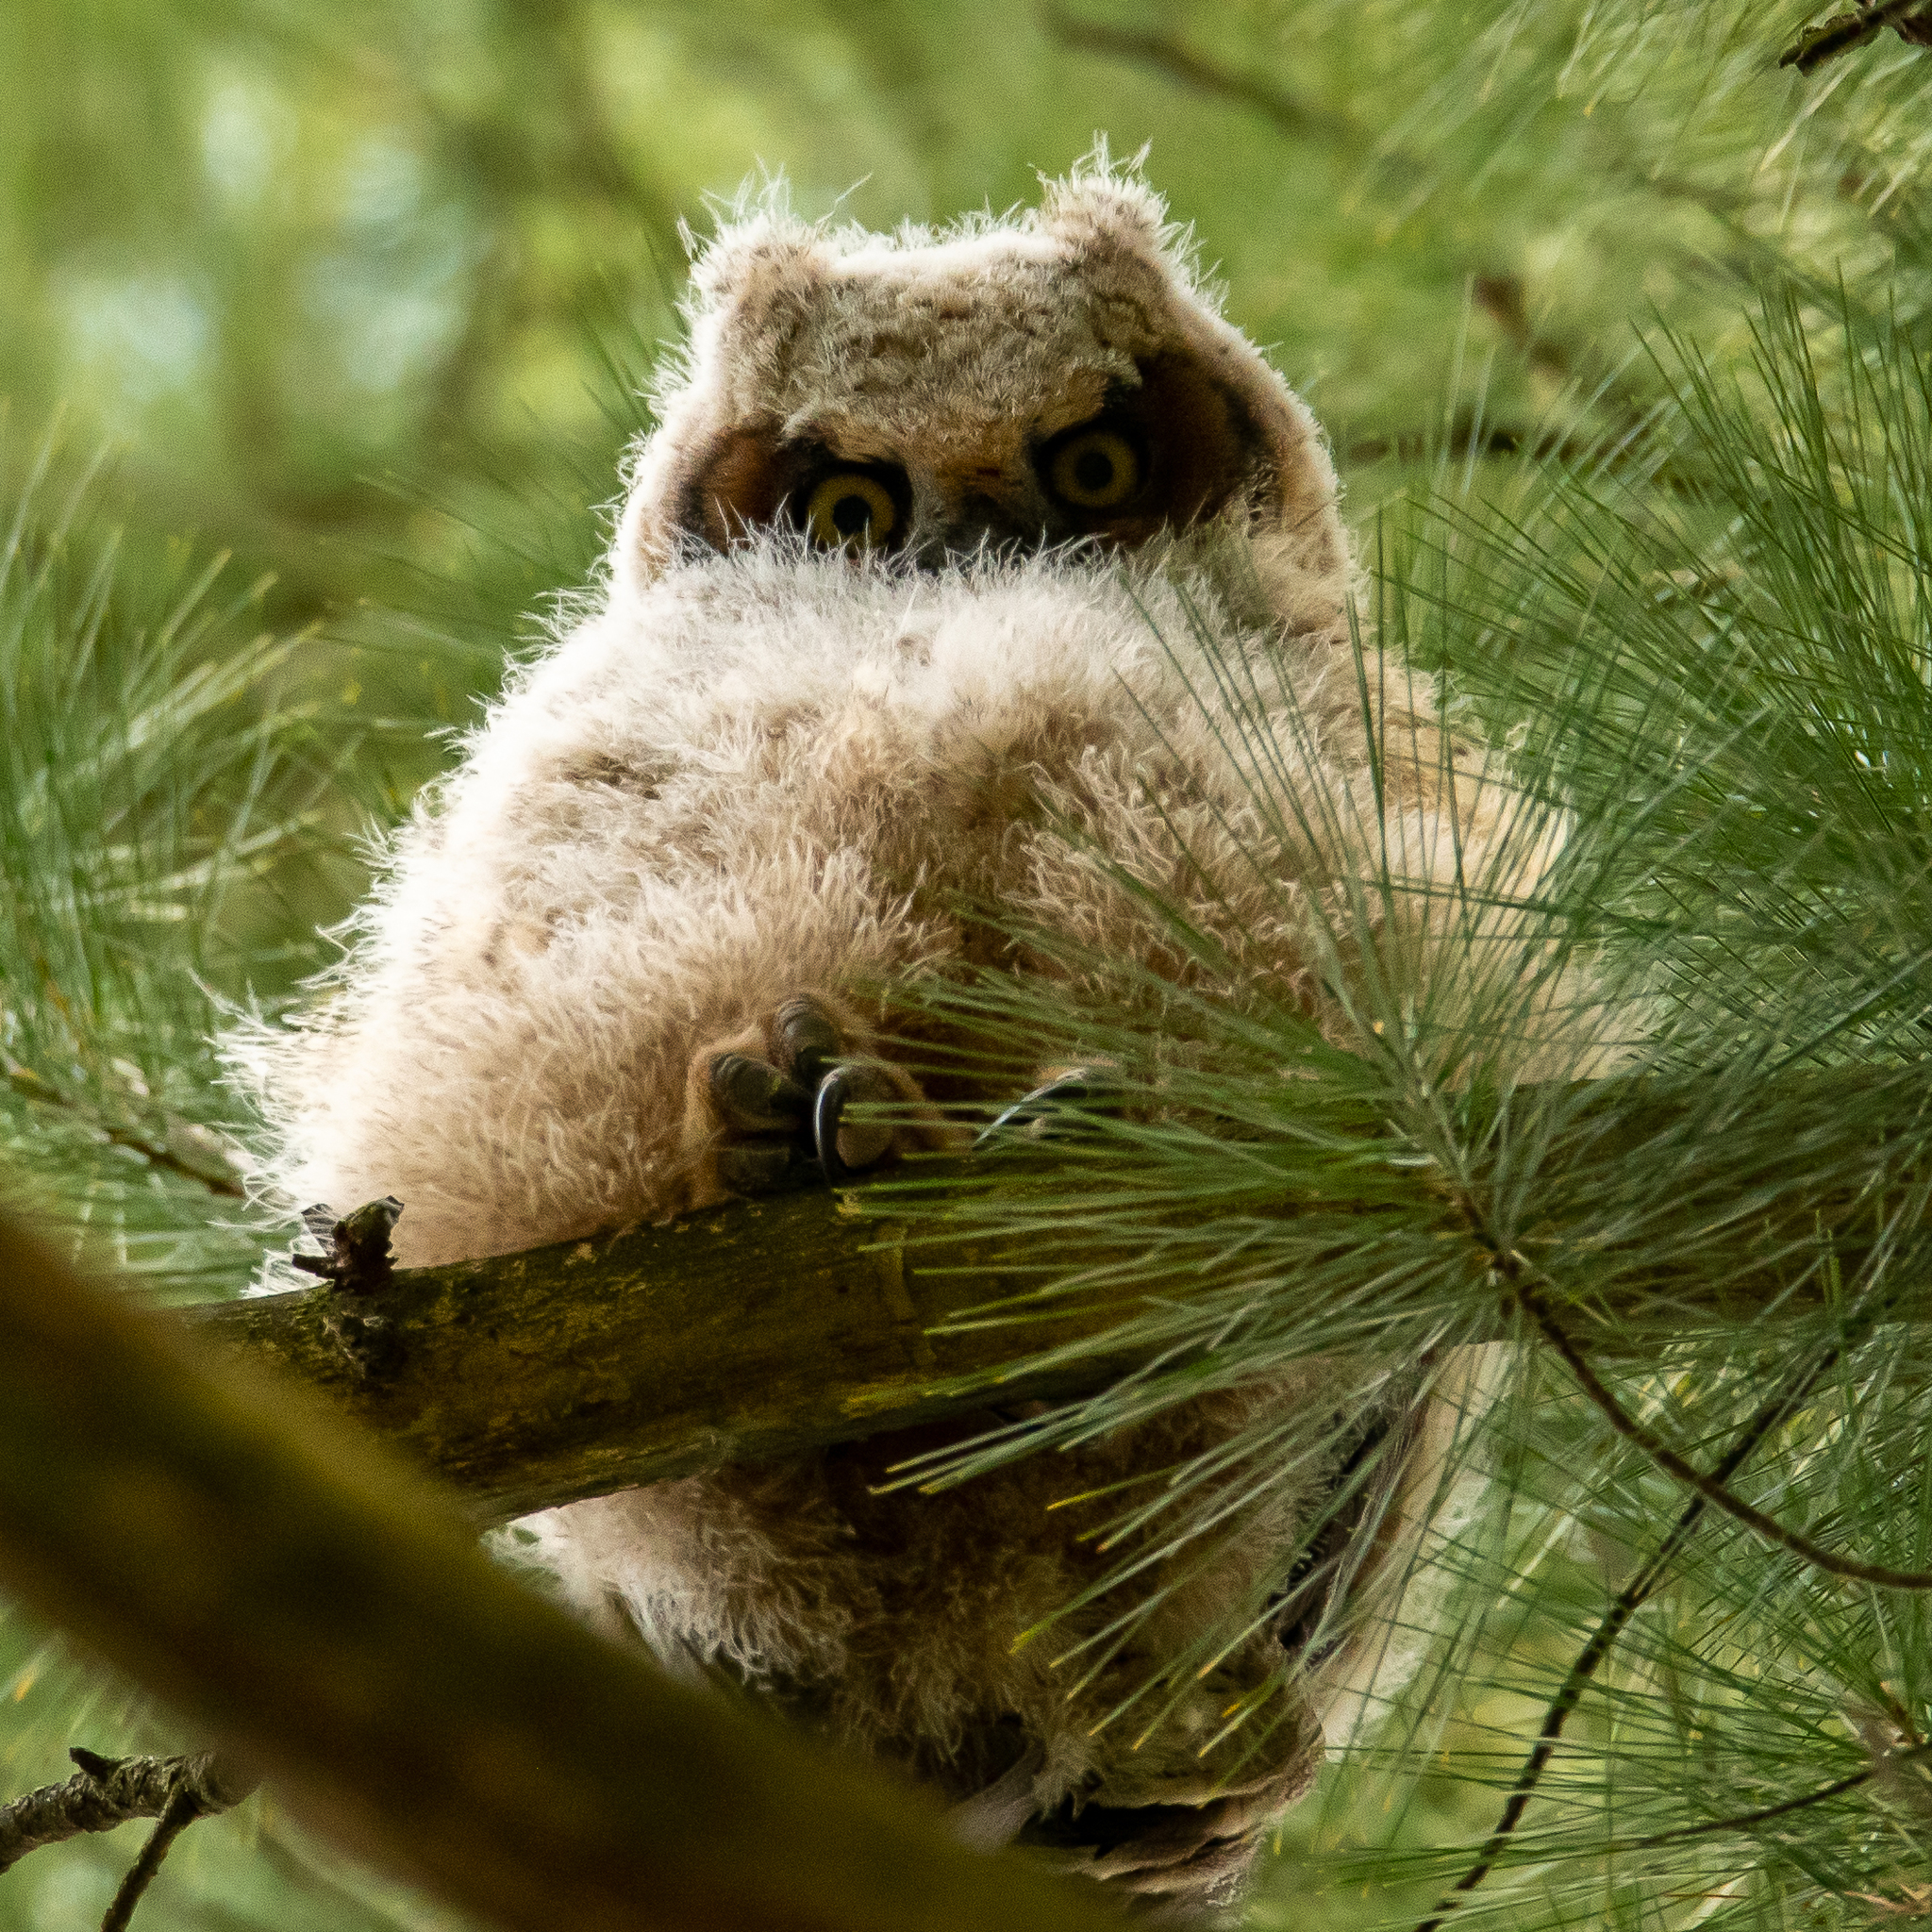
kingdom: Animalia
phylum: Chordata
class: Aves
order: Strigiformes
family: Strigidae
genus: Bubo
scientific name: Bubo virginianus
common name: Great horned owl
